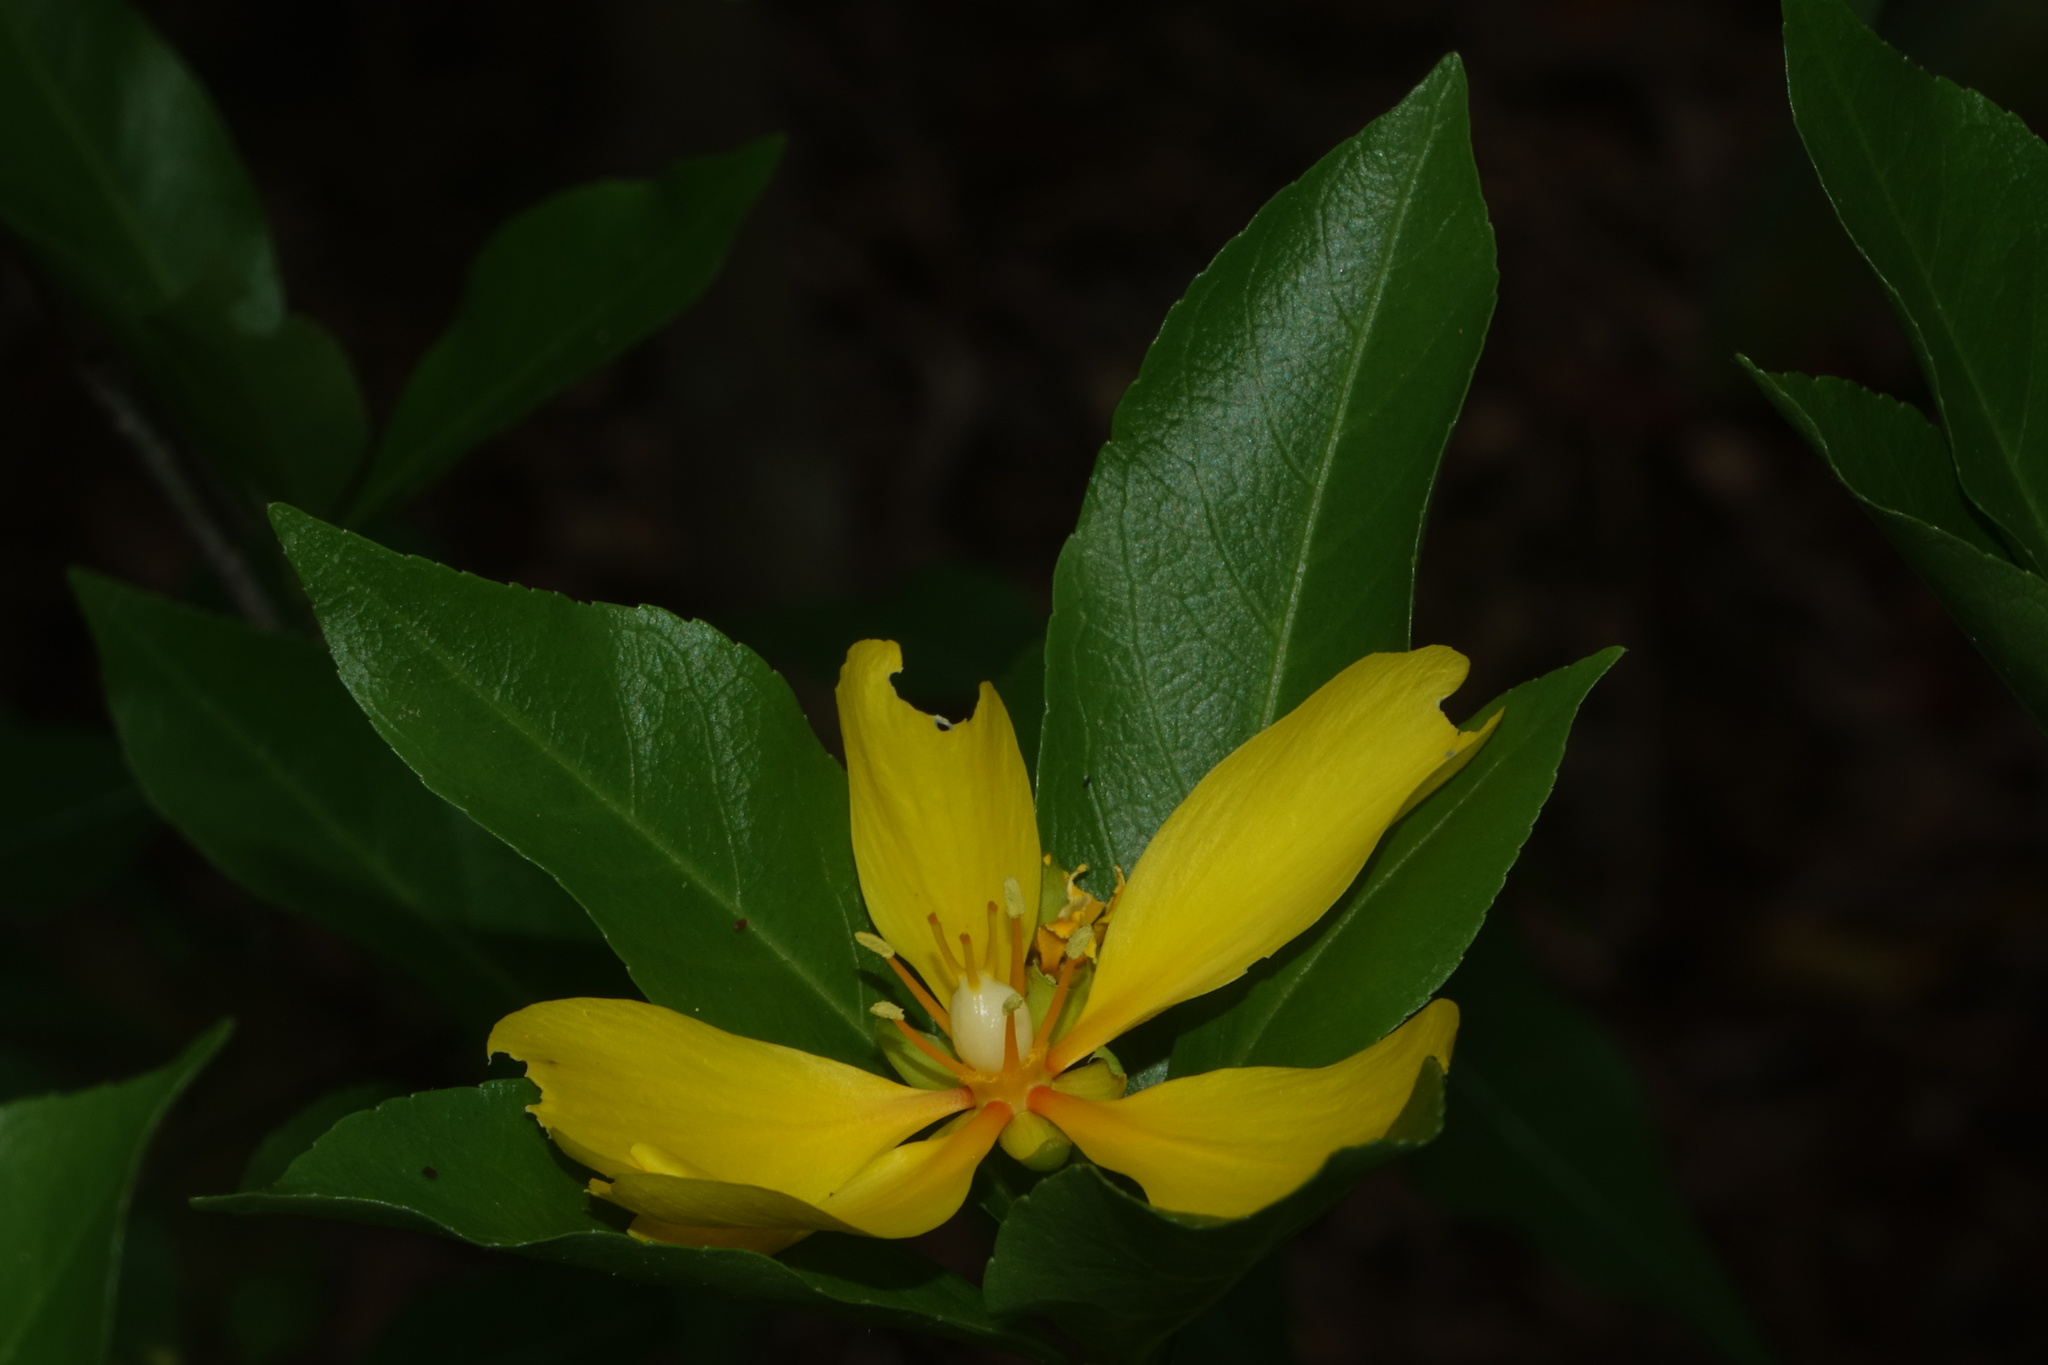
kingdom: Plantae
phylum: Tracheophyta
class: Magnoliopsida
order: Malpighiales
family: Turneraceae
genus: Arboa
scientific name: Arboa integrifolia
